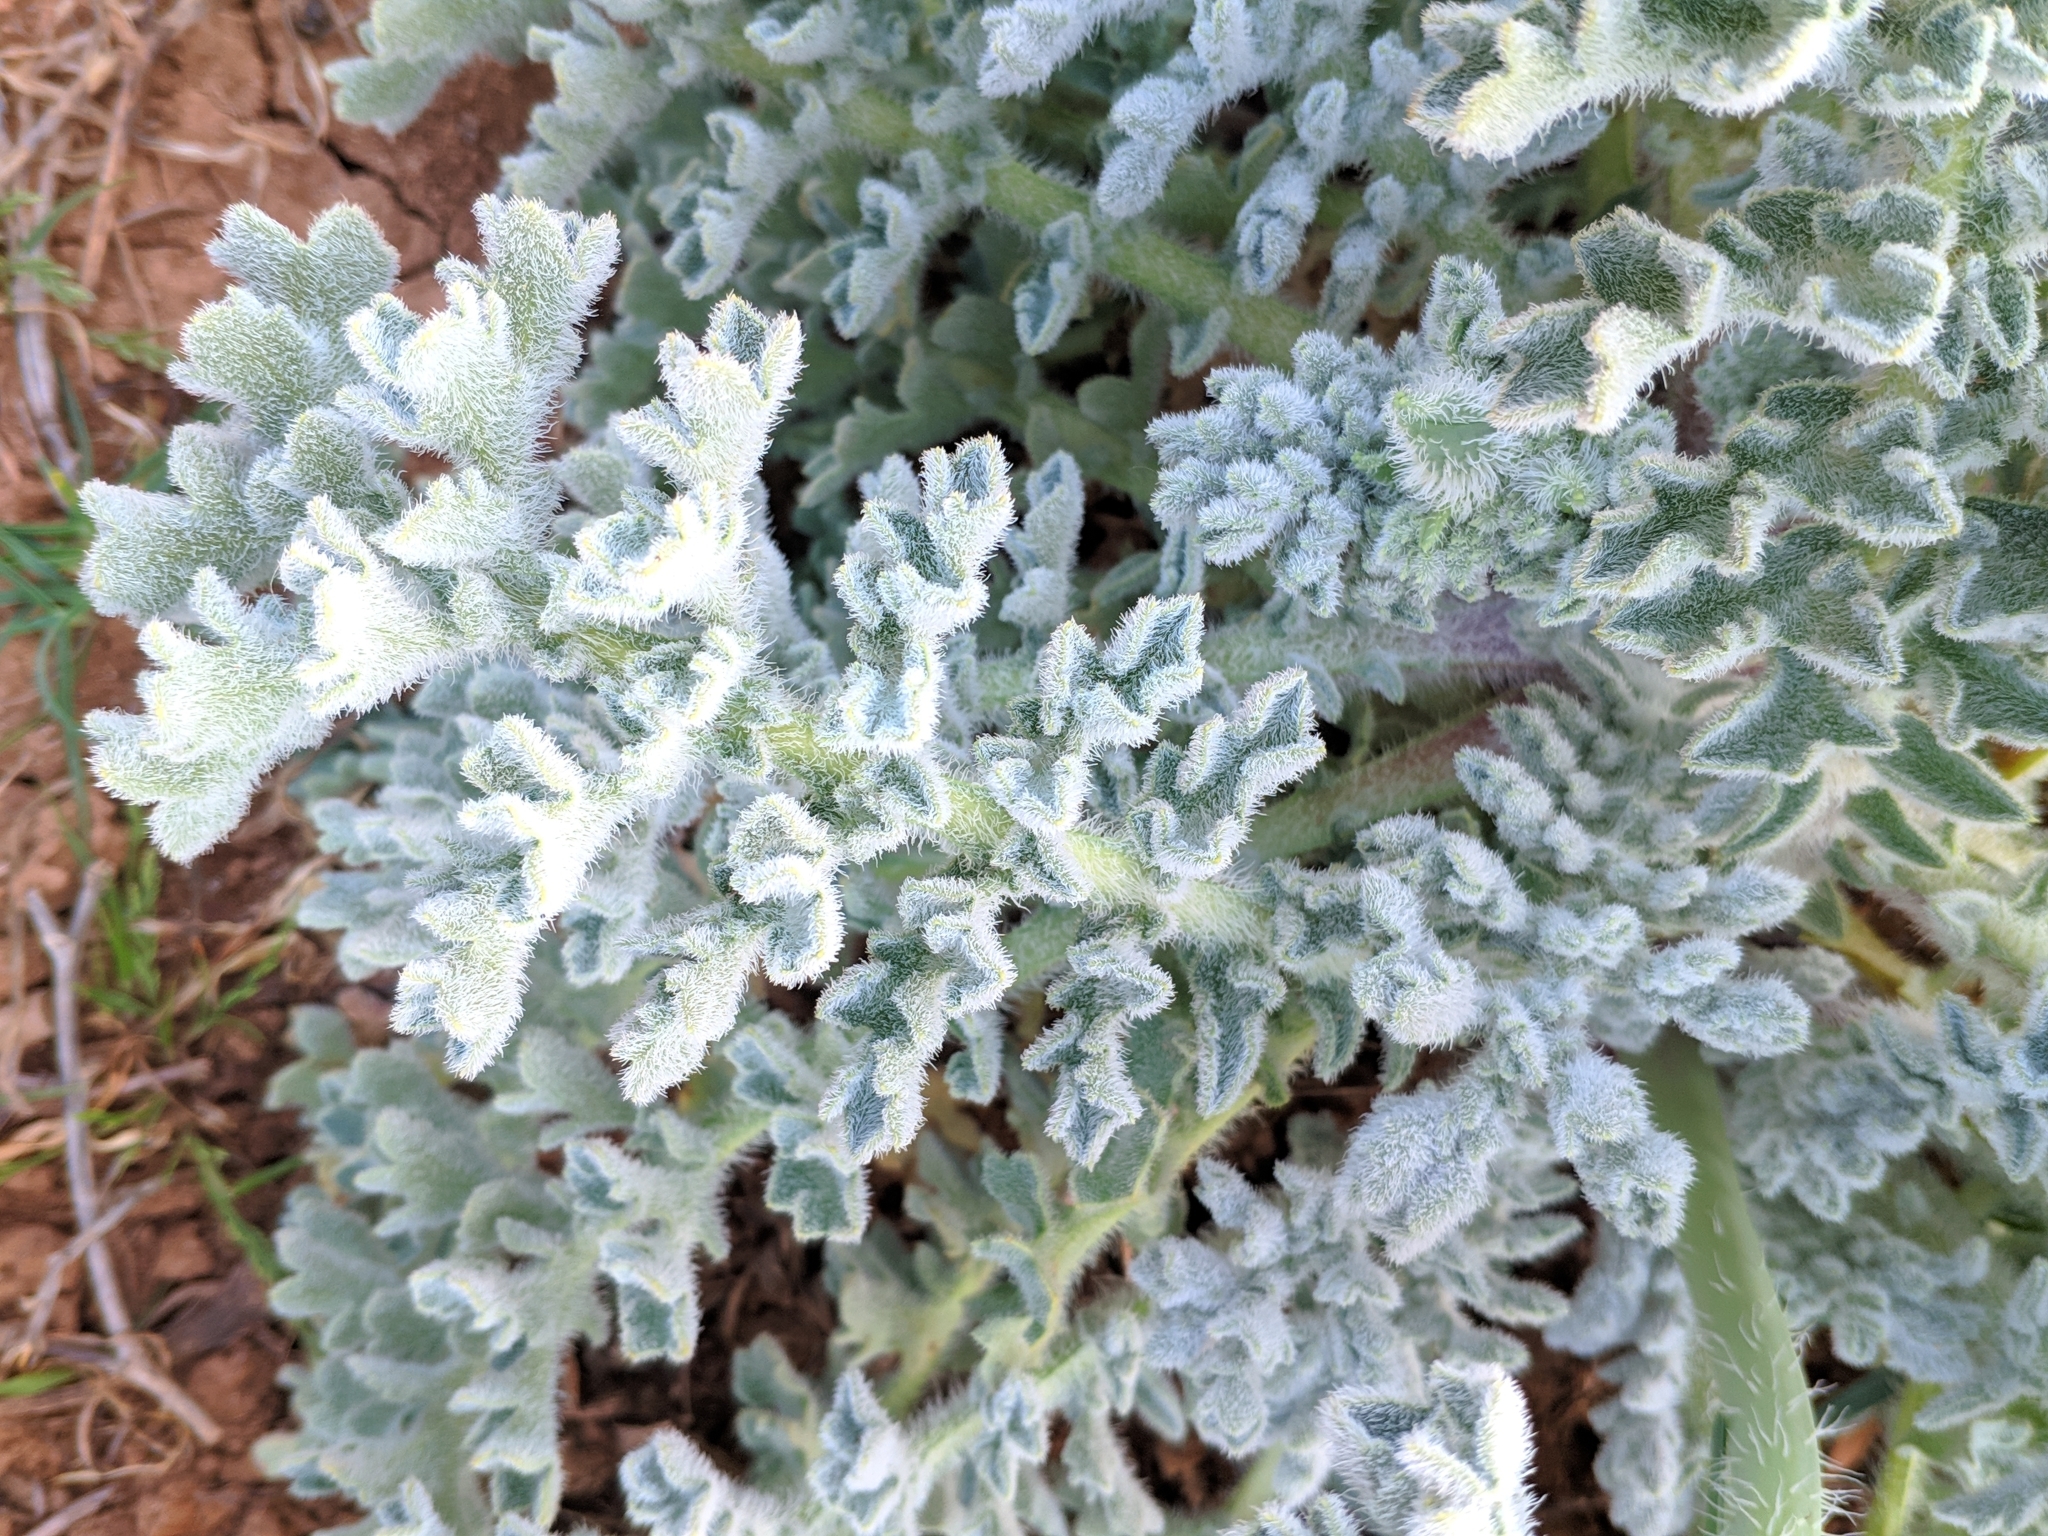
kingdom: Plantae
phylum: Tracheophyta
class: Magnoliopsida
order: Ranunculales
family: Papaveraceae
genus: Glaucium
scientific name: Glaucium flavum
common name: Yellow horned-poppy
